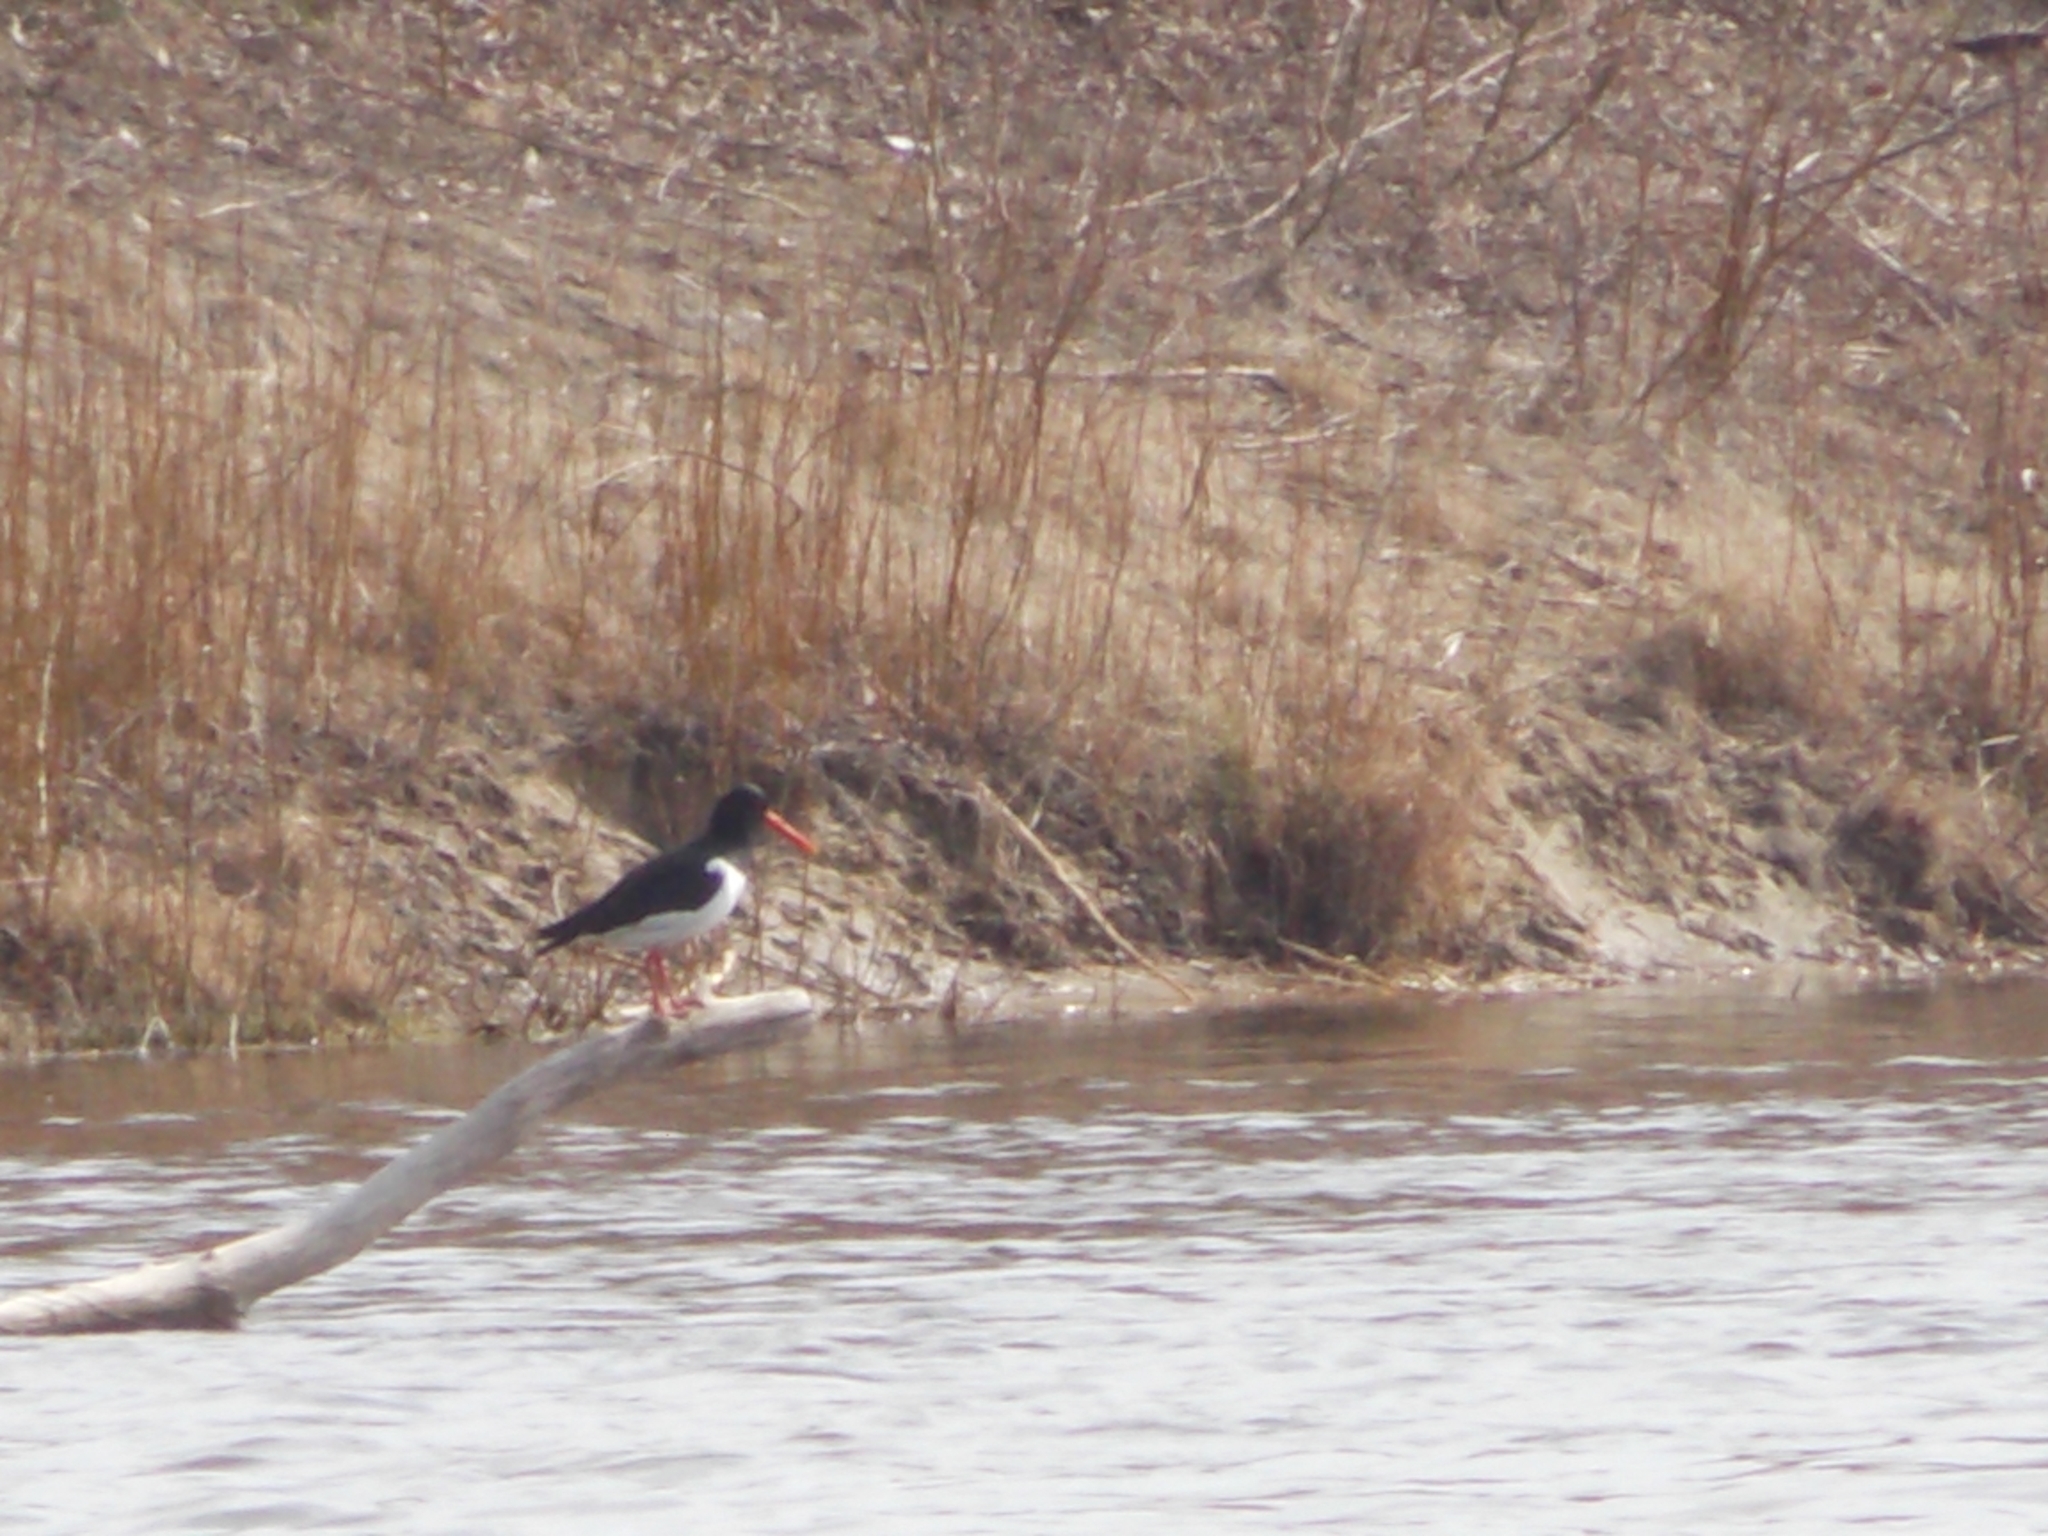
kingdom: Animalia
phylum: Chordata
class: Aves
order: Charadriiformes
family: Haematopodidae
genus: Haematopus
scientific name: Haematopus ostralegus
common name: Eurasian oystercatcher
